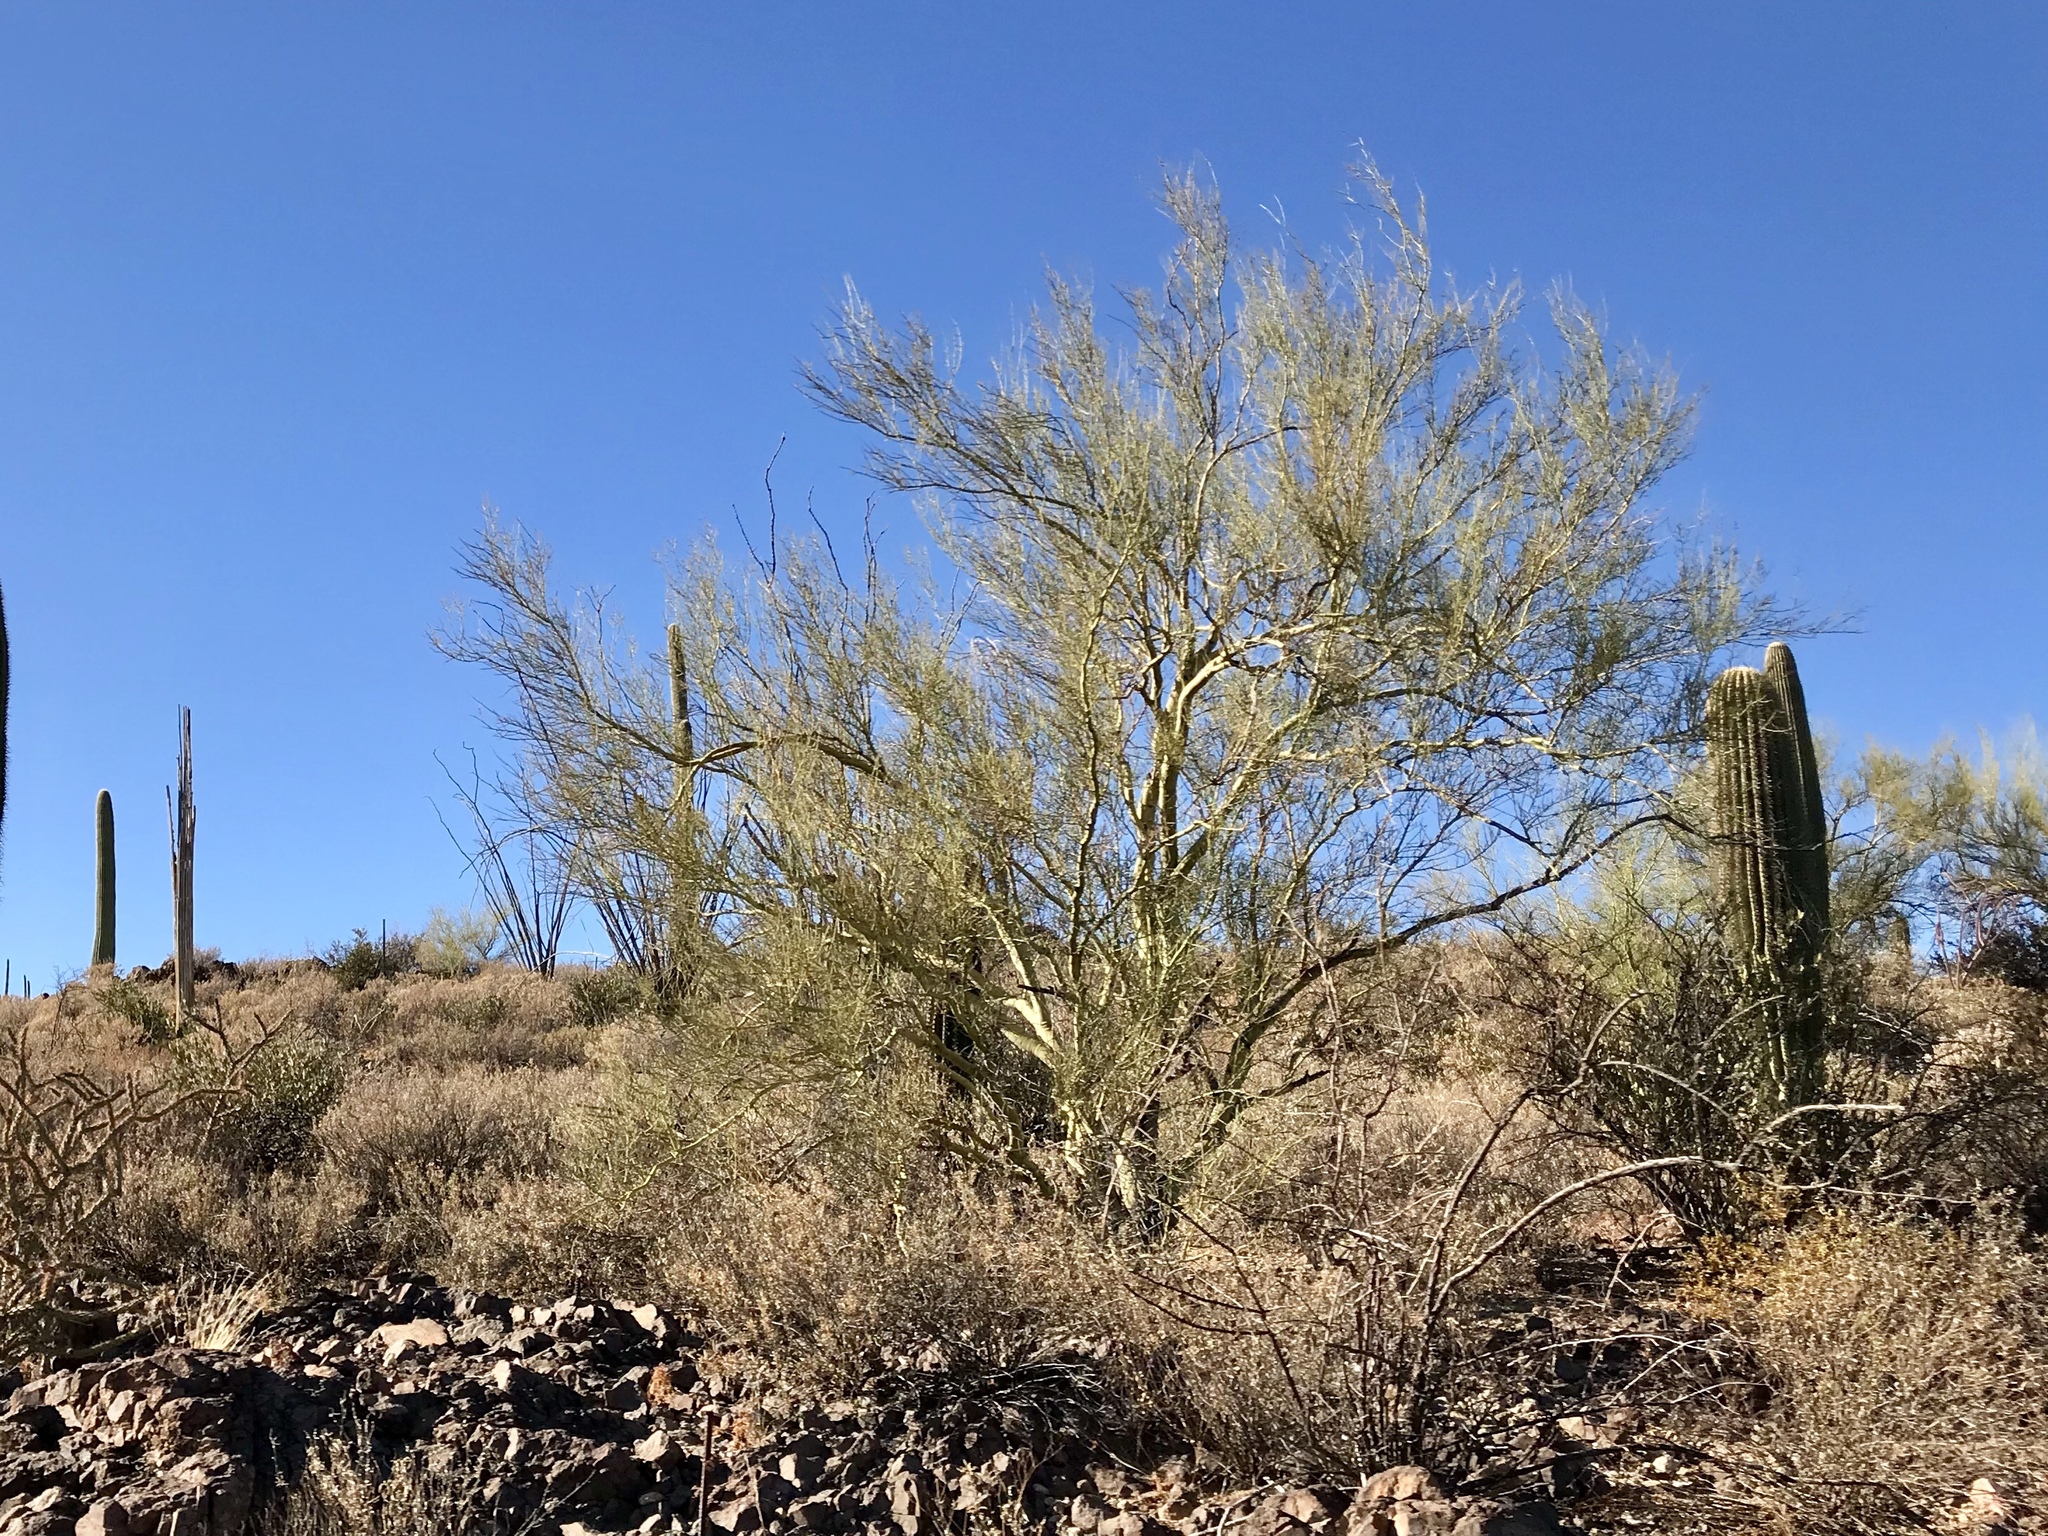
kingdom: Plantae
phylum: Tracheophyta
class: Magnoliopsida
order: Fabales
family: Fabaceae
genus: Parkinsonia
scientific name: Parkinsonia microphylla
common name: Yellow paloverde
